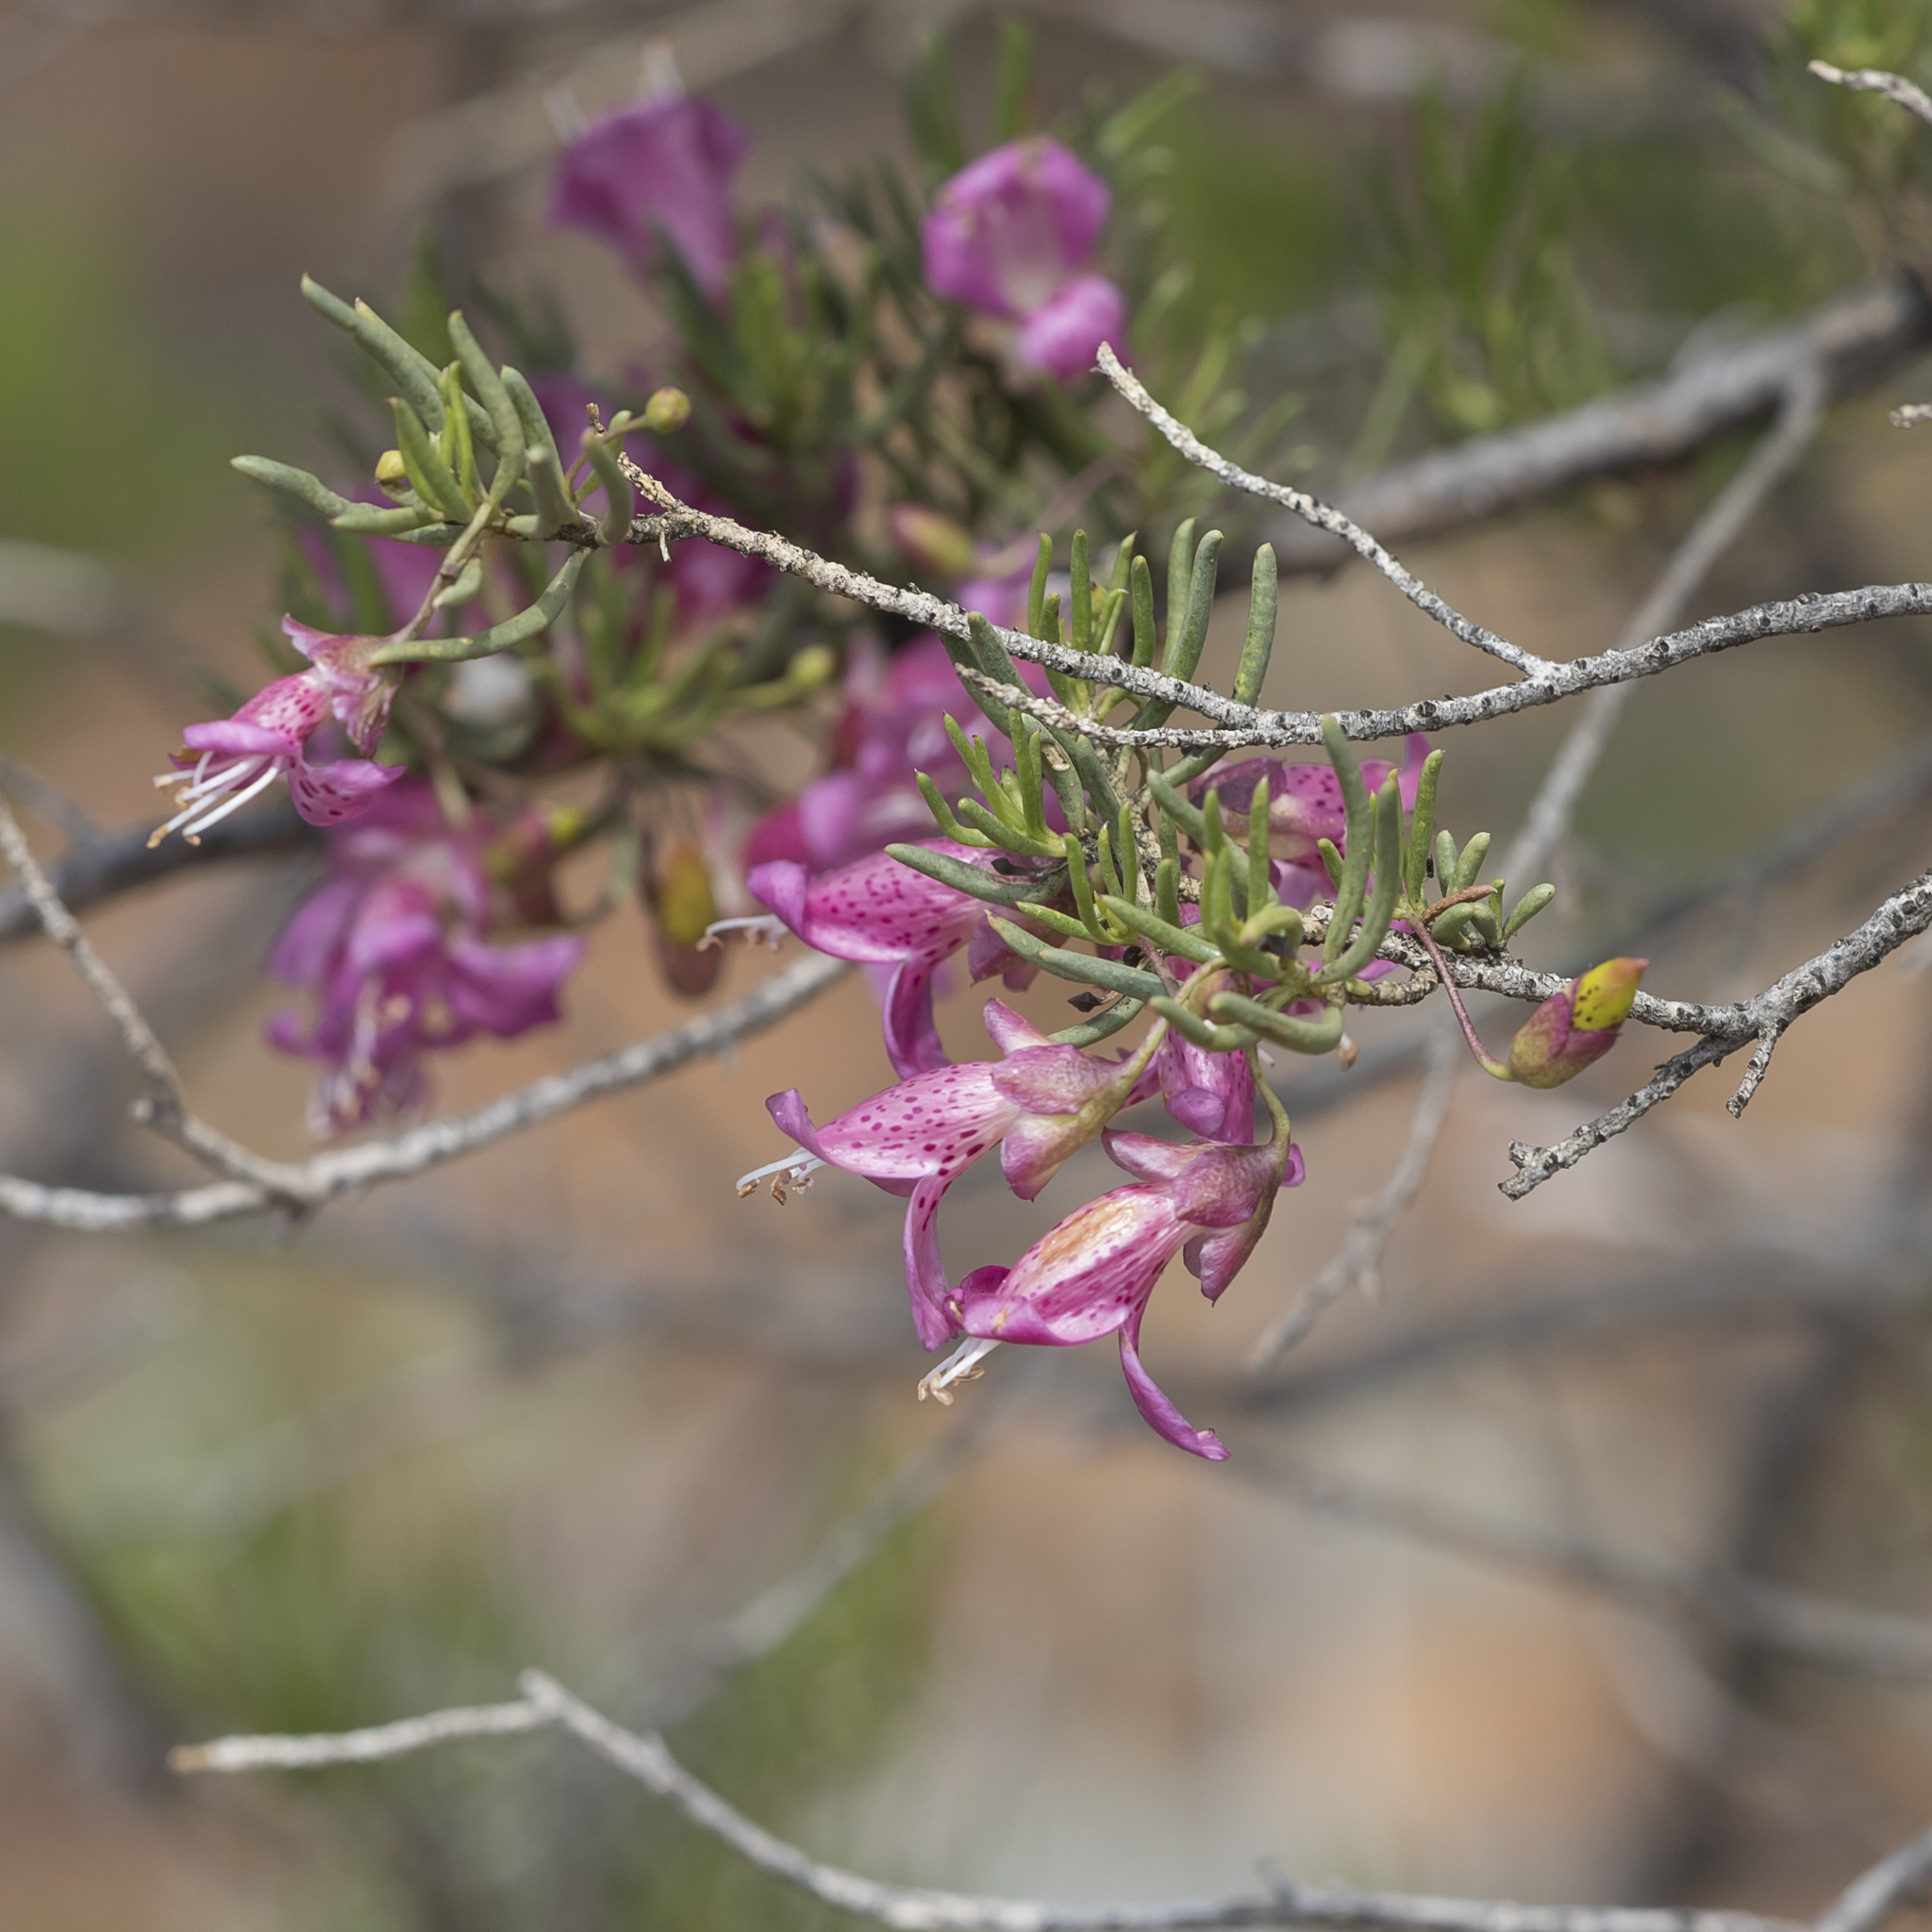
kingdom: Plantae
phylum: Tracheophyta
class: Magnoliopsida
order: Lamiales
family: Scrophulariaceae
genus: Eremophila
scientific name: Eremophila alternifolia
